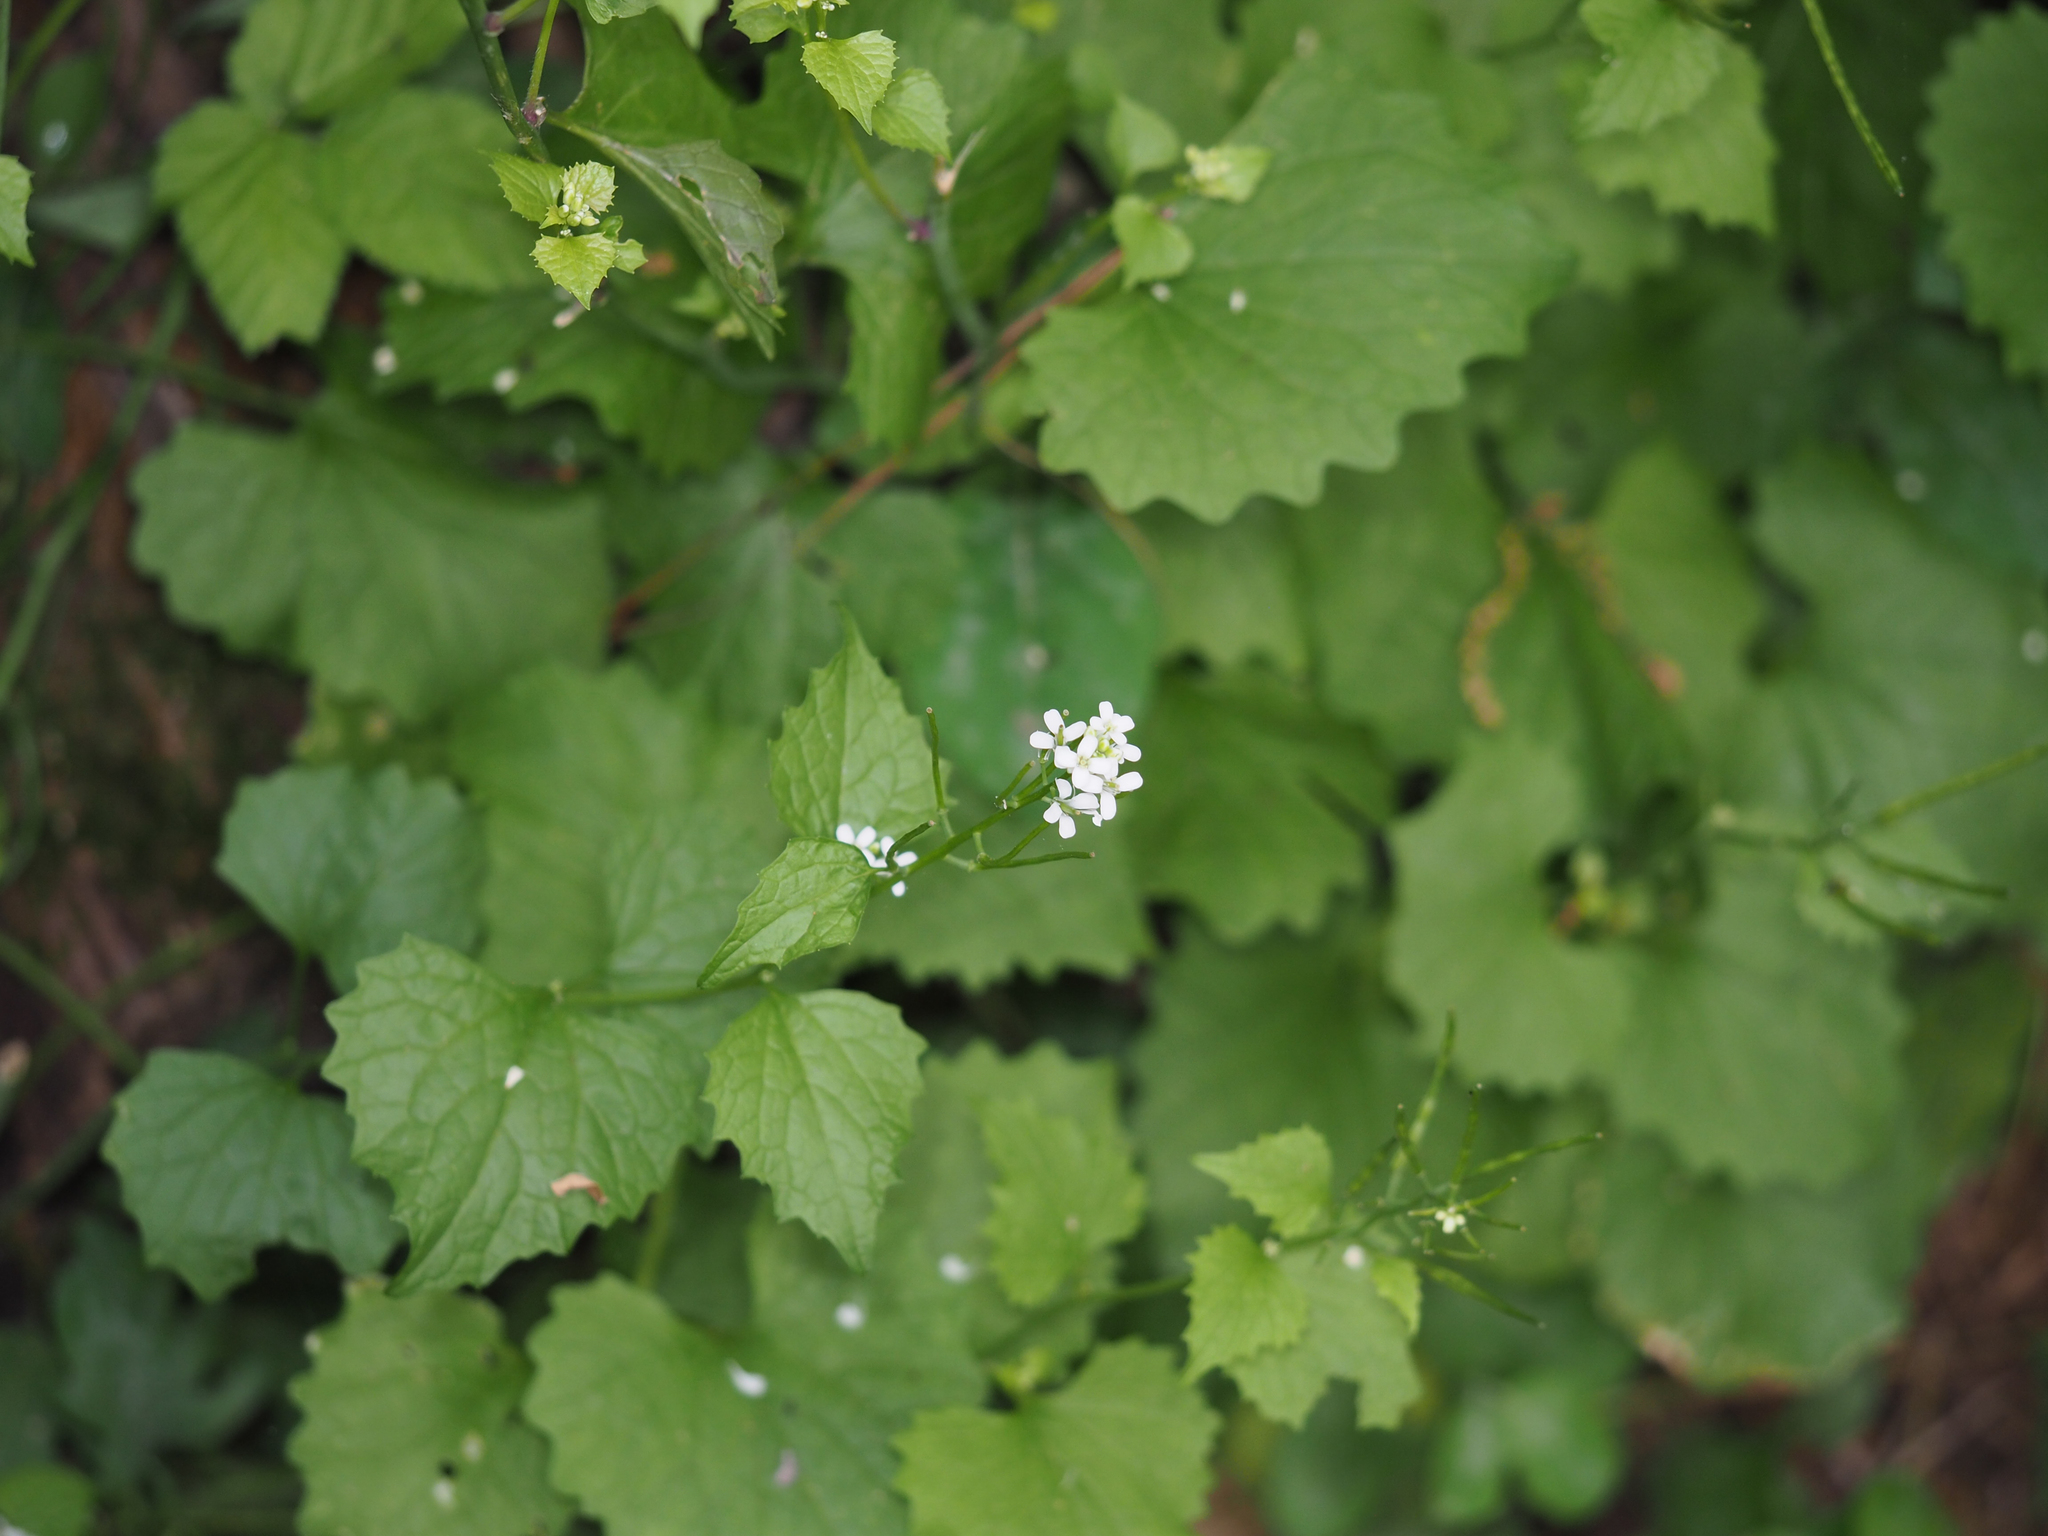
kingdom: Plantae
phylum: Tracheophyta
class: Magnoliopsida
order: Brassicales
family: Brassicaceae
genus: Alliaria
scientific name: Alliaria petiolata
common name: Garlic mustard
